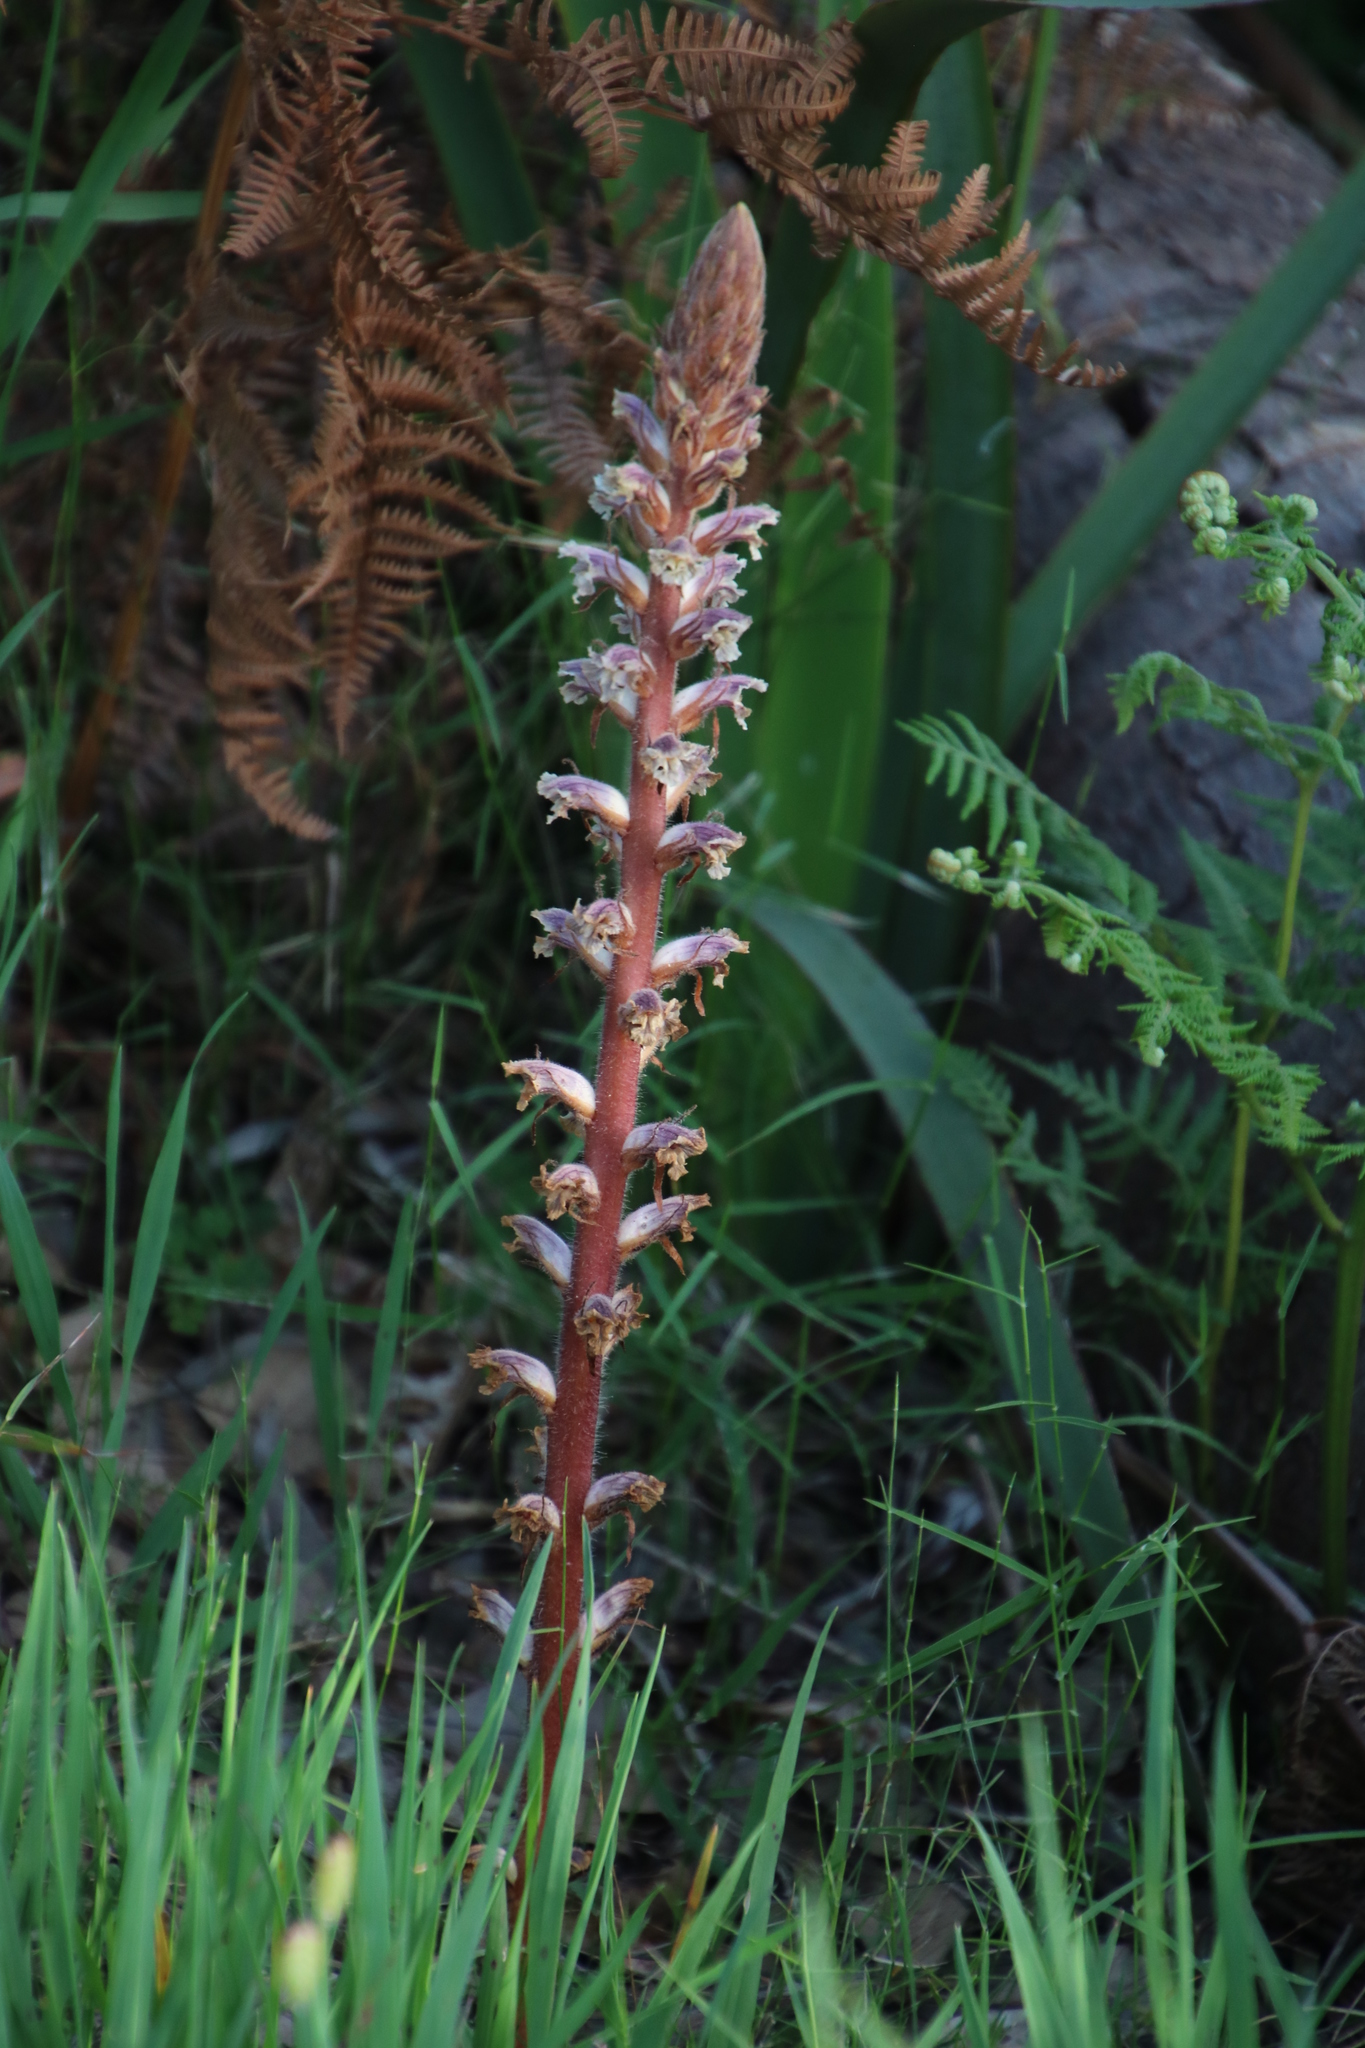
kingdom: Plantae
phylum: Tracheophyta
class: Magnoliopsida
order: Lamiales
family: Orobanchaceae
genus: Orobanche
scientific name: Orobanche minor
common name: Common broomrape
